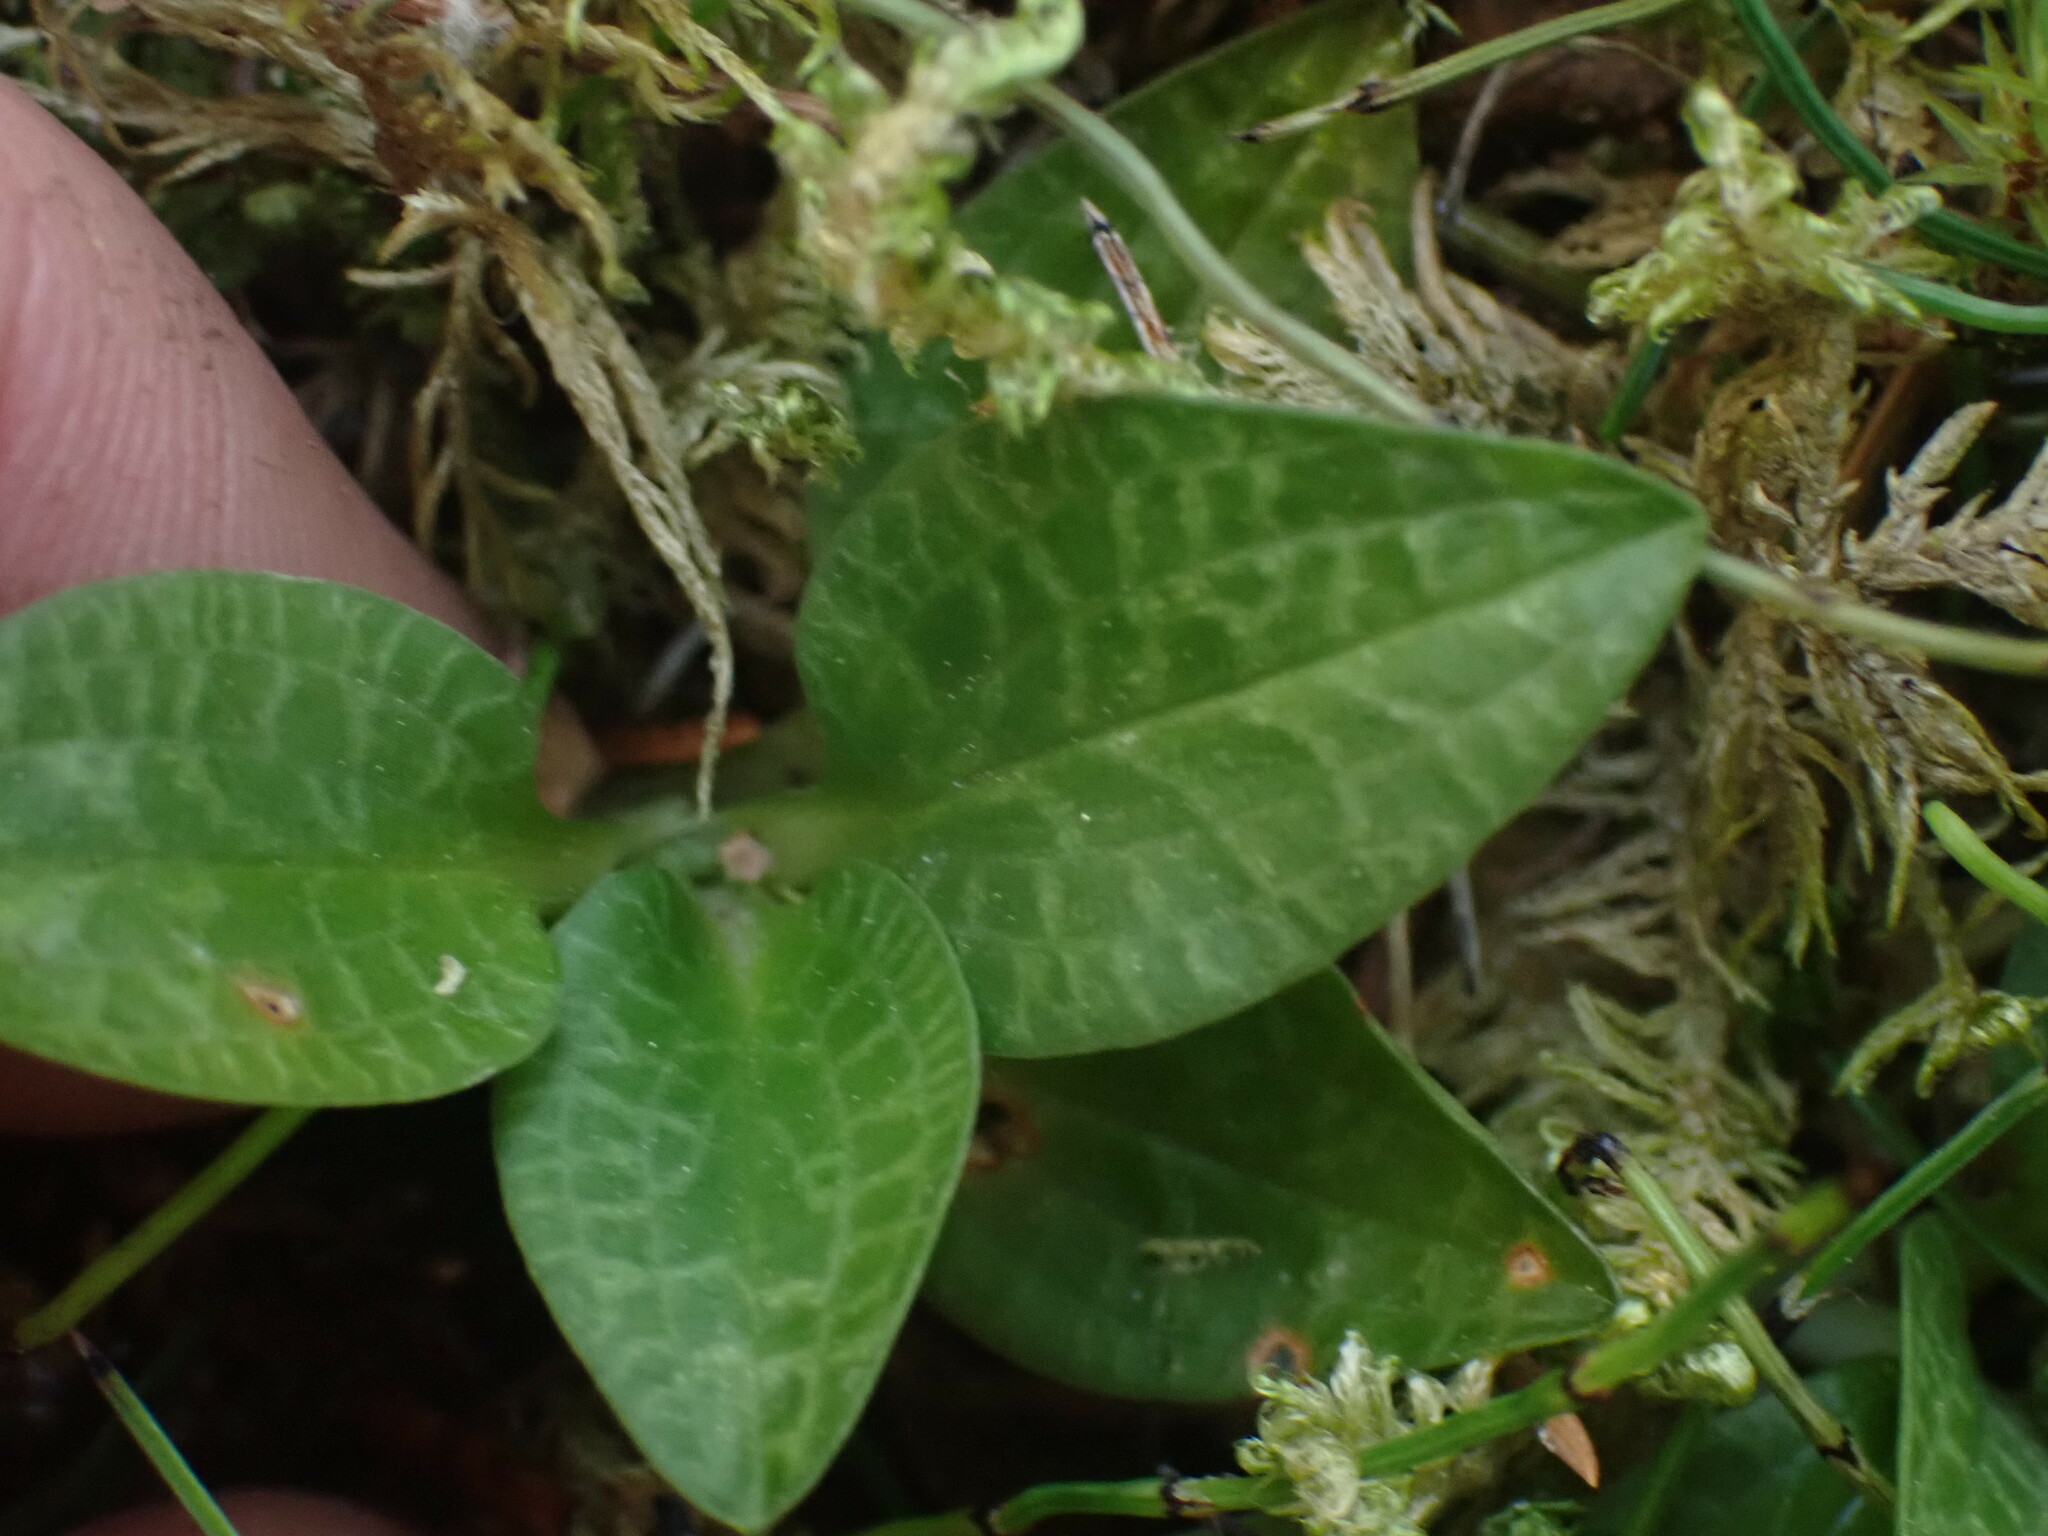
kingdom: Plantae
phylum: Tracheophyta
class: Liliopsida
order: Asparagales
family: Orchidaceae
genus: Goodyera
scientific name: Goodyera repens
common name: Creeping lady's-tresses
